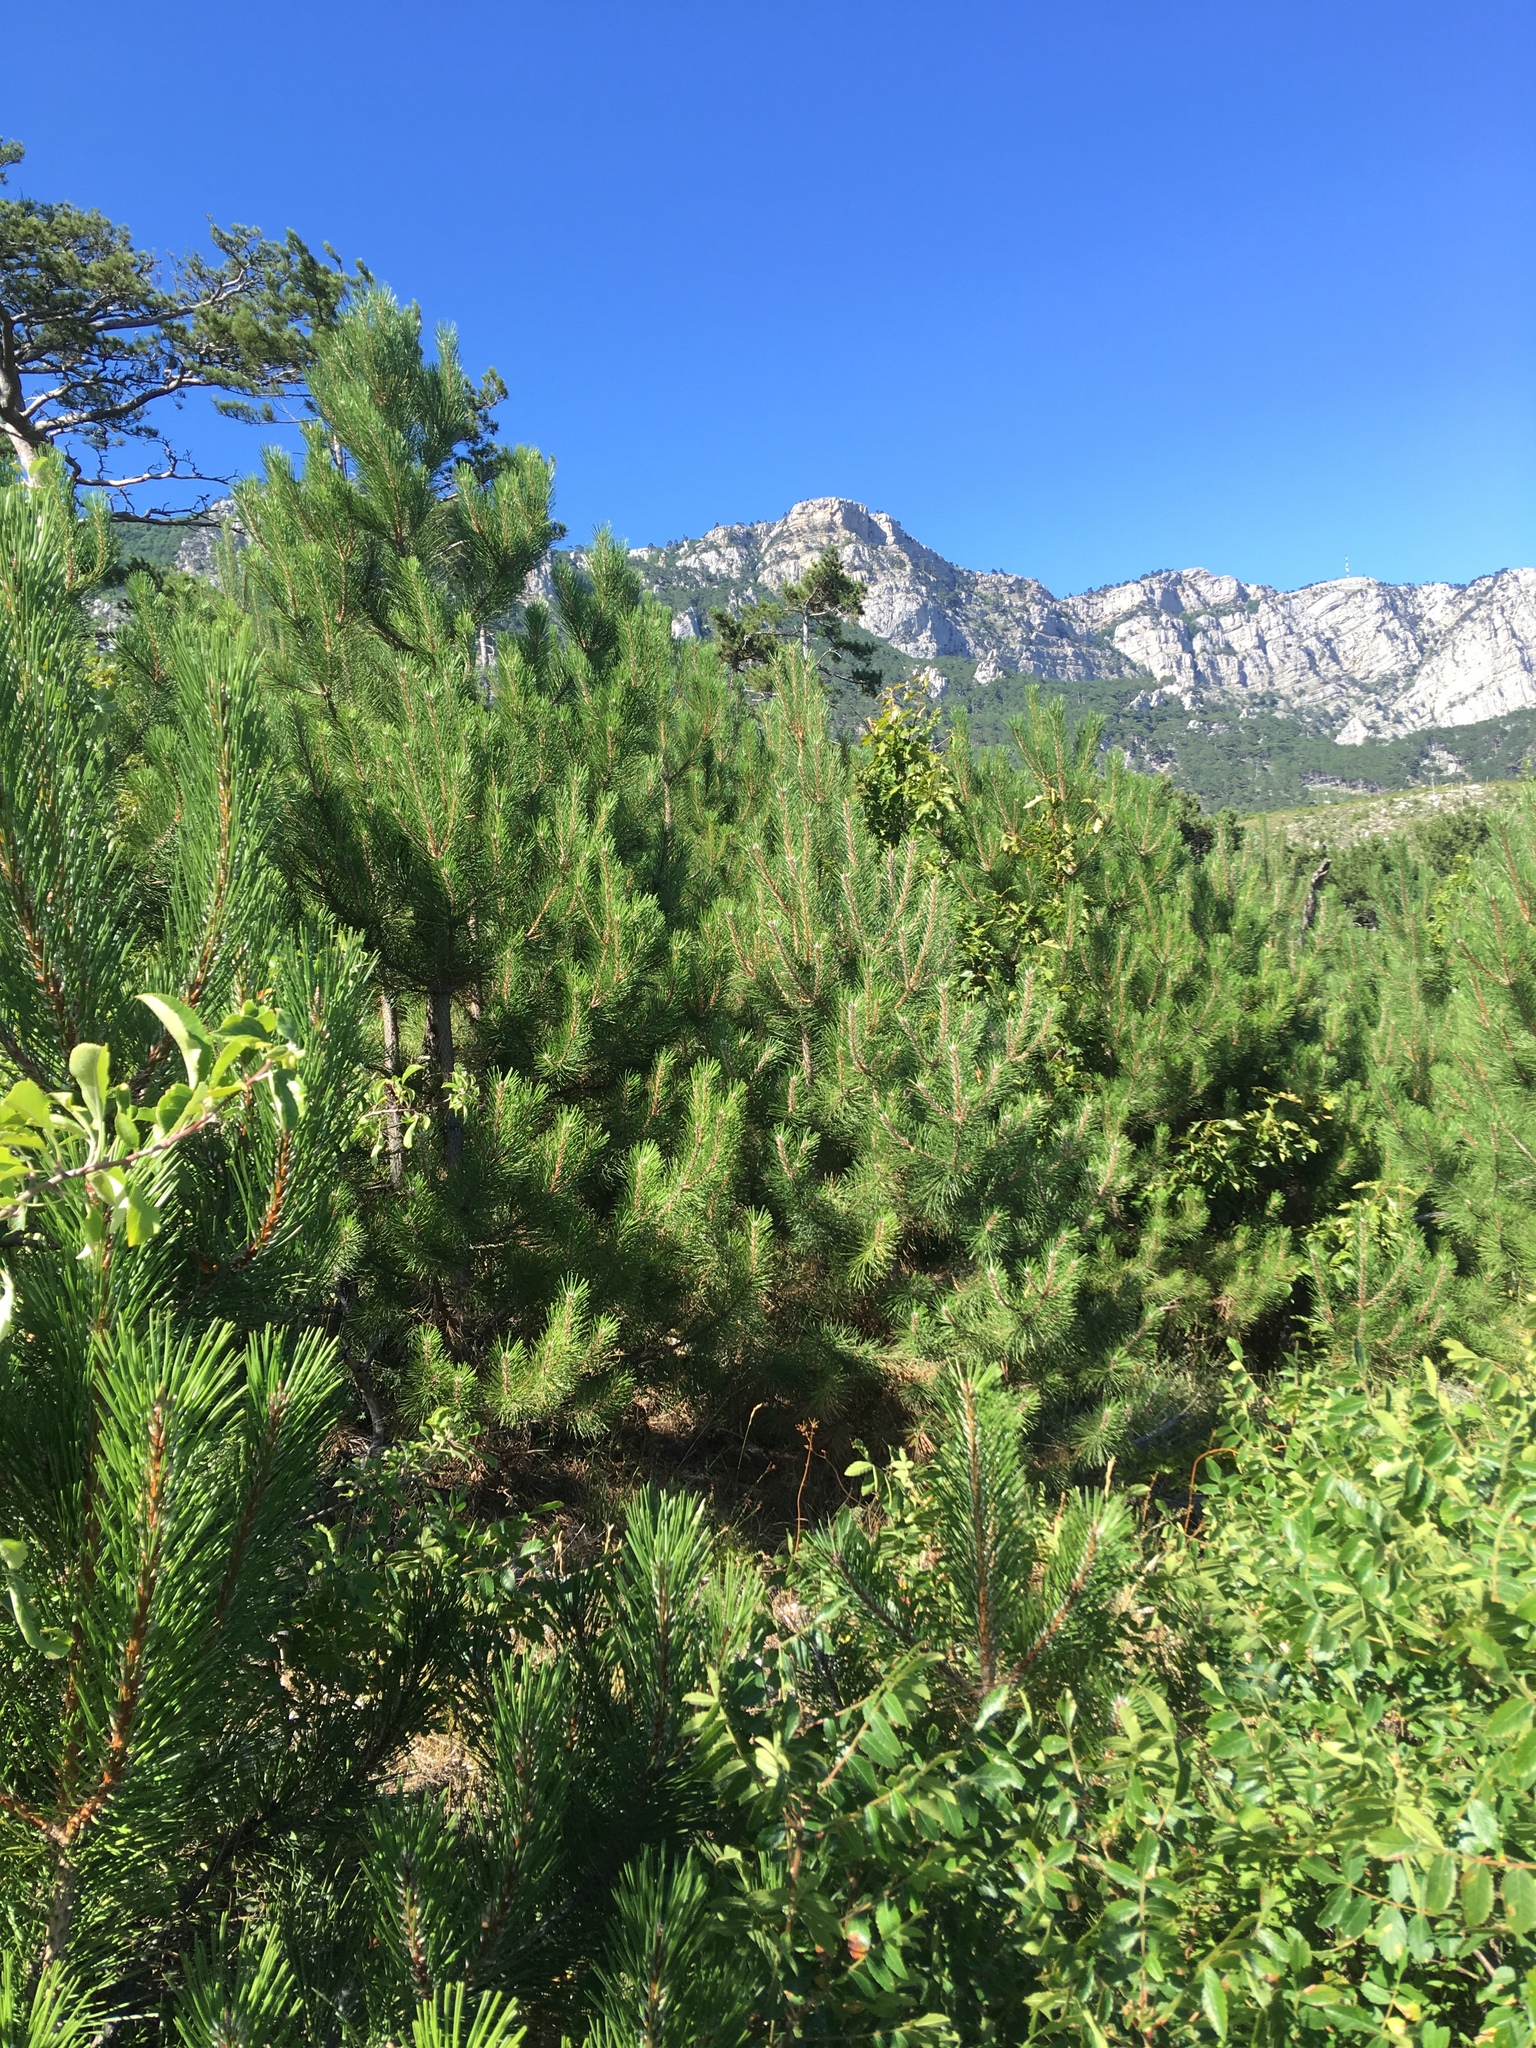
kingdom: Plantae
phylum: Tracheophyta
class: Pinopsida
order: Pinales
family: Pinaceae
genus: Pinus
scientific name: Pinus nigra
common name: Austrian pine
